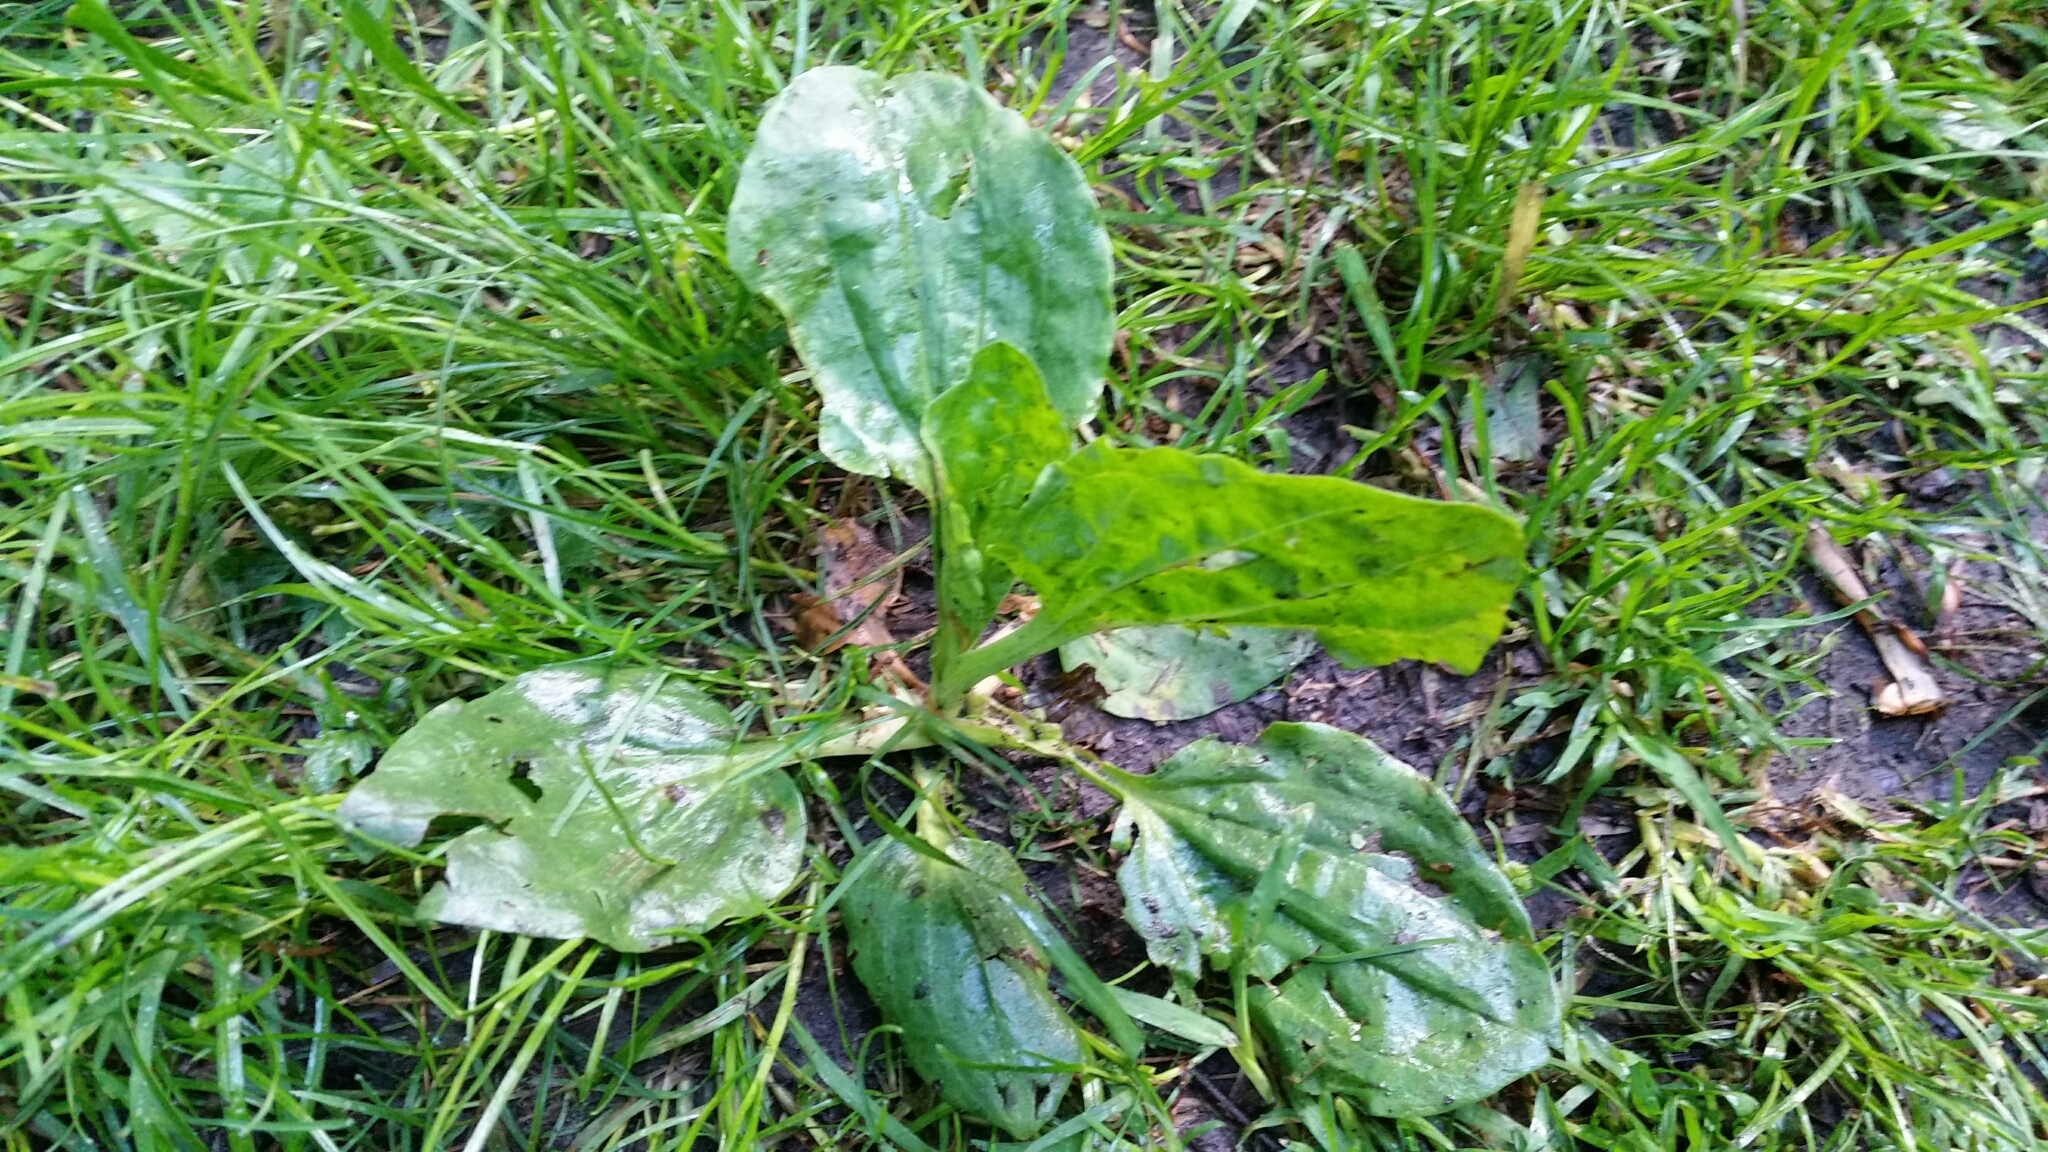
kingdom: Plantae
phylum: Tracheophyta
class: Magnoliopsida
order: Lamiales
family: Plantaginaceae
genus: Plantago
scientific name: Plantago major
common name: Common plantain
